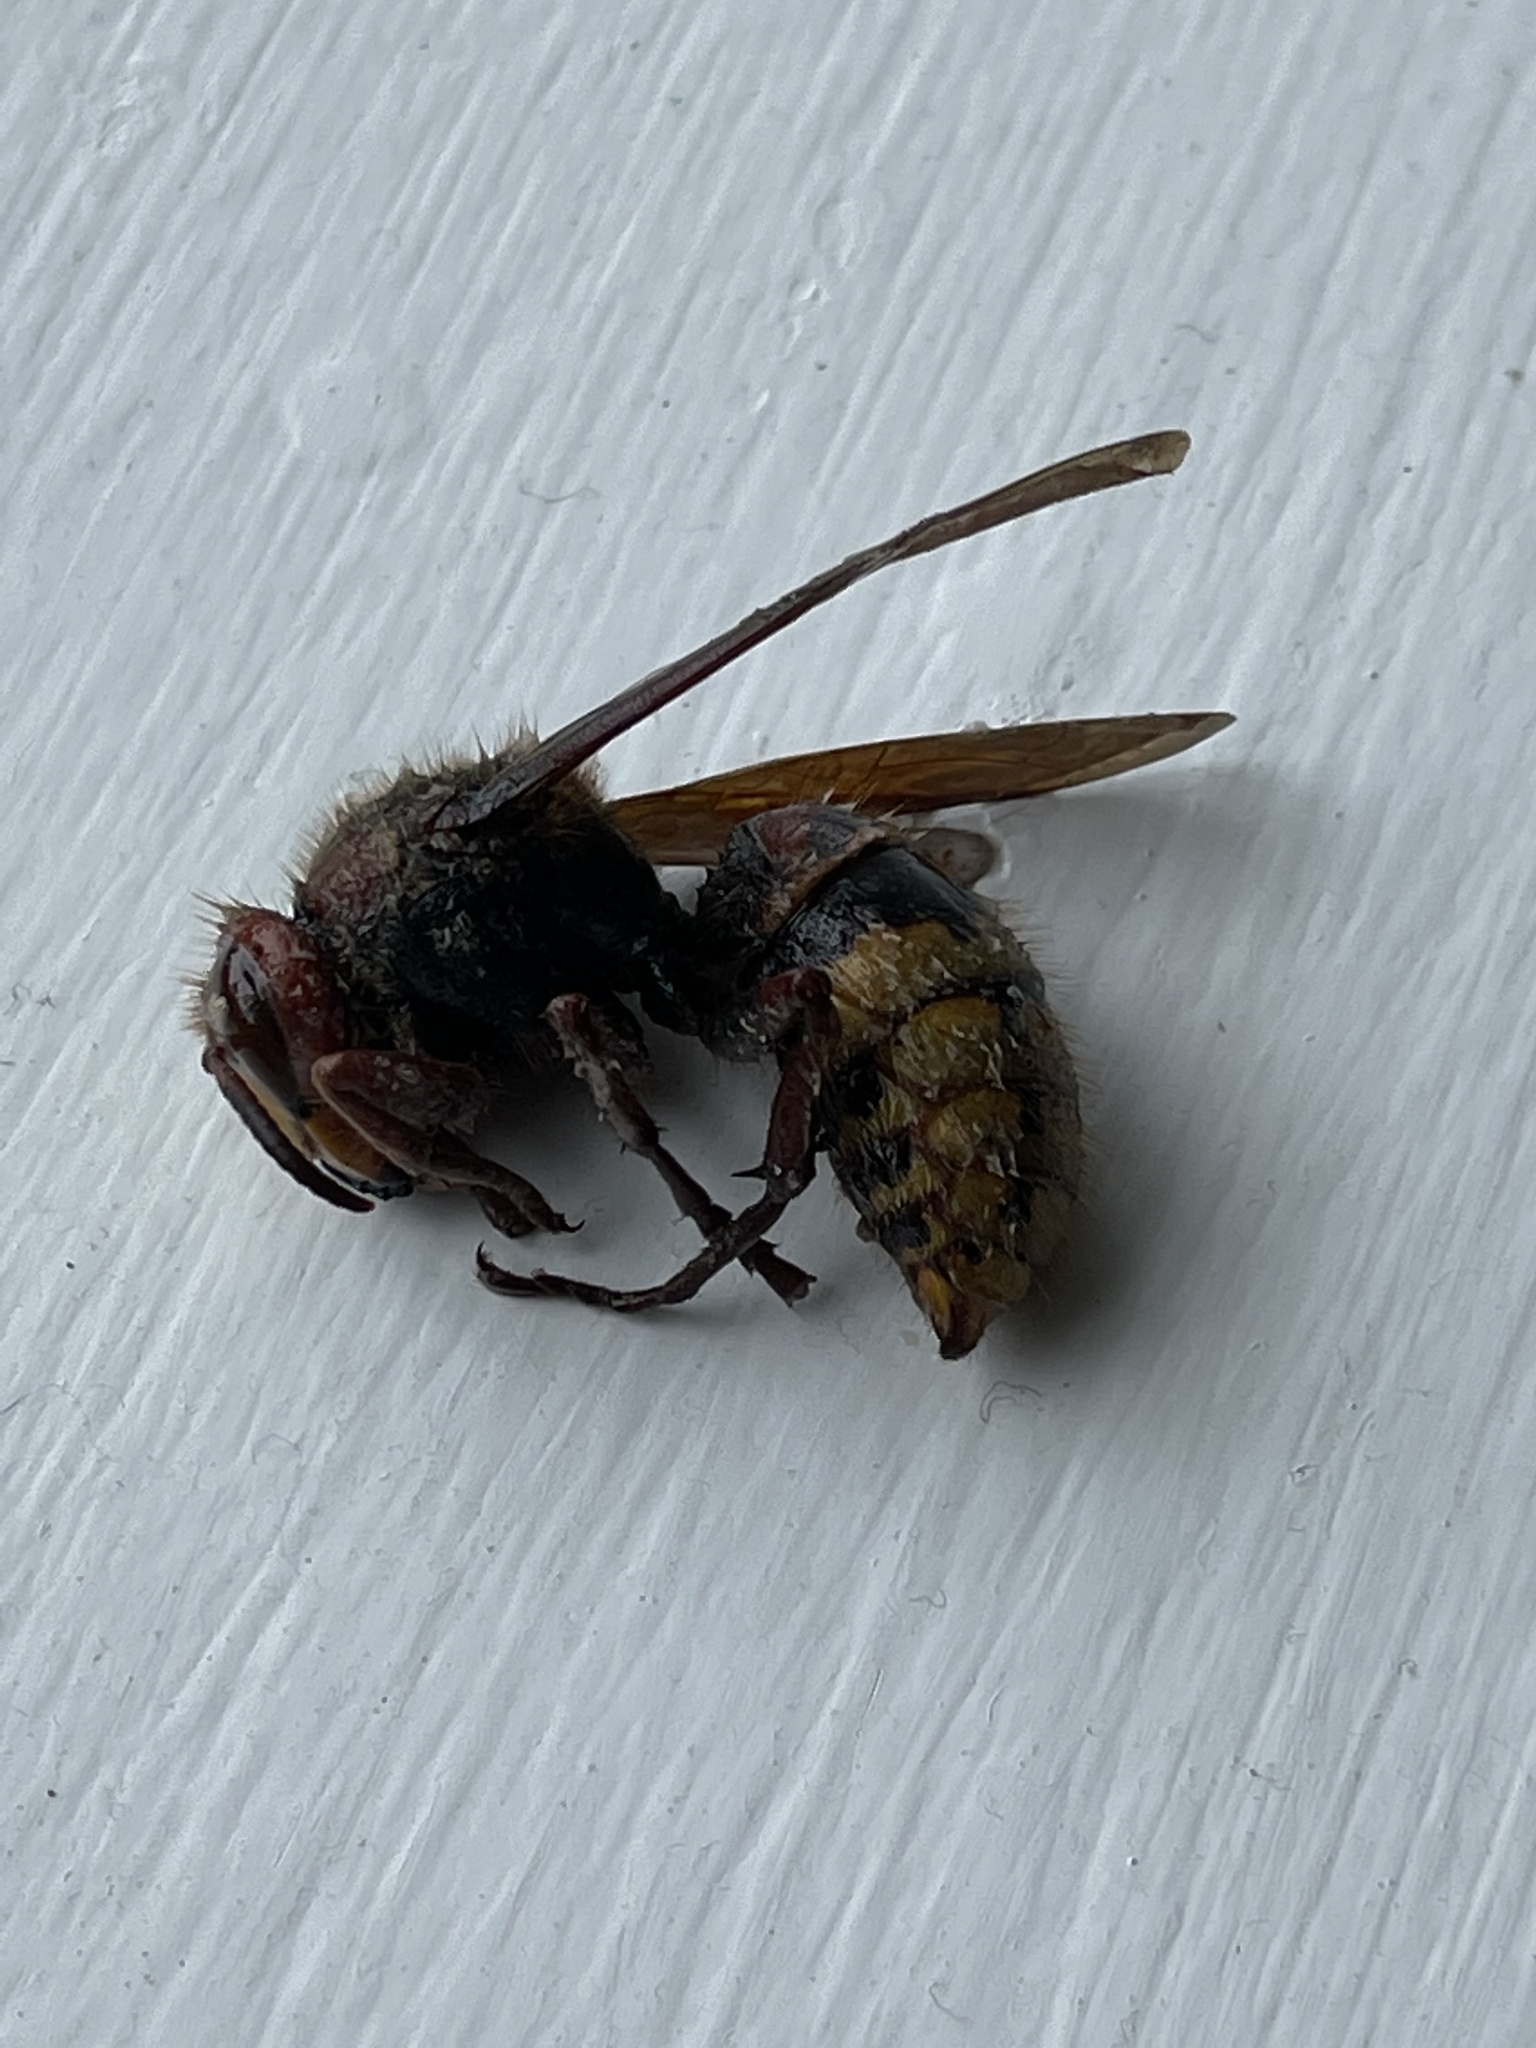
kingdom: Animalia
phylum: Arthropoda
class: Insecta
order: Hymenoptera
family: Vespidae
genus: Vespa
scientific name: Vespa crabro
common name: Hornet
